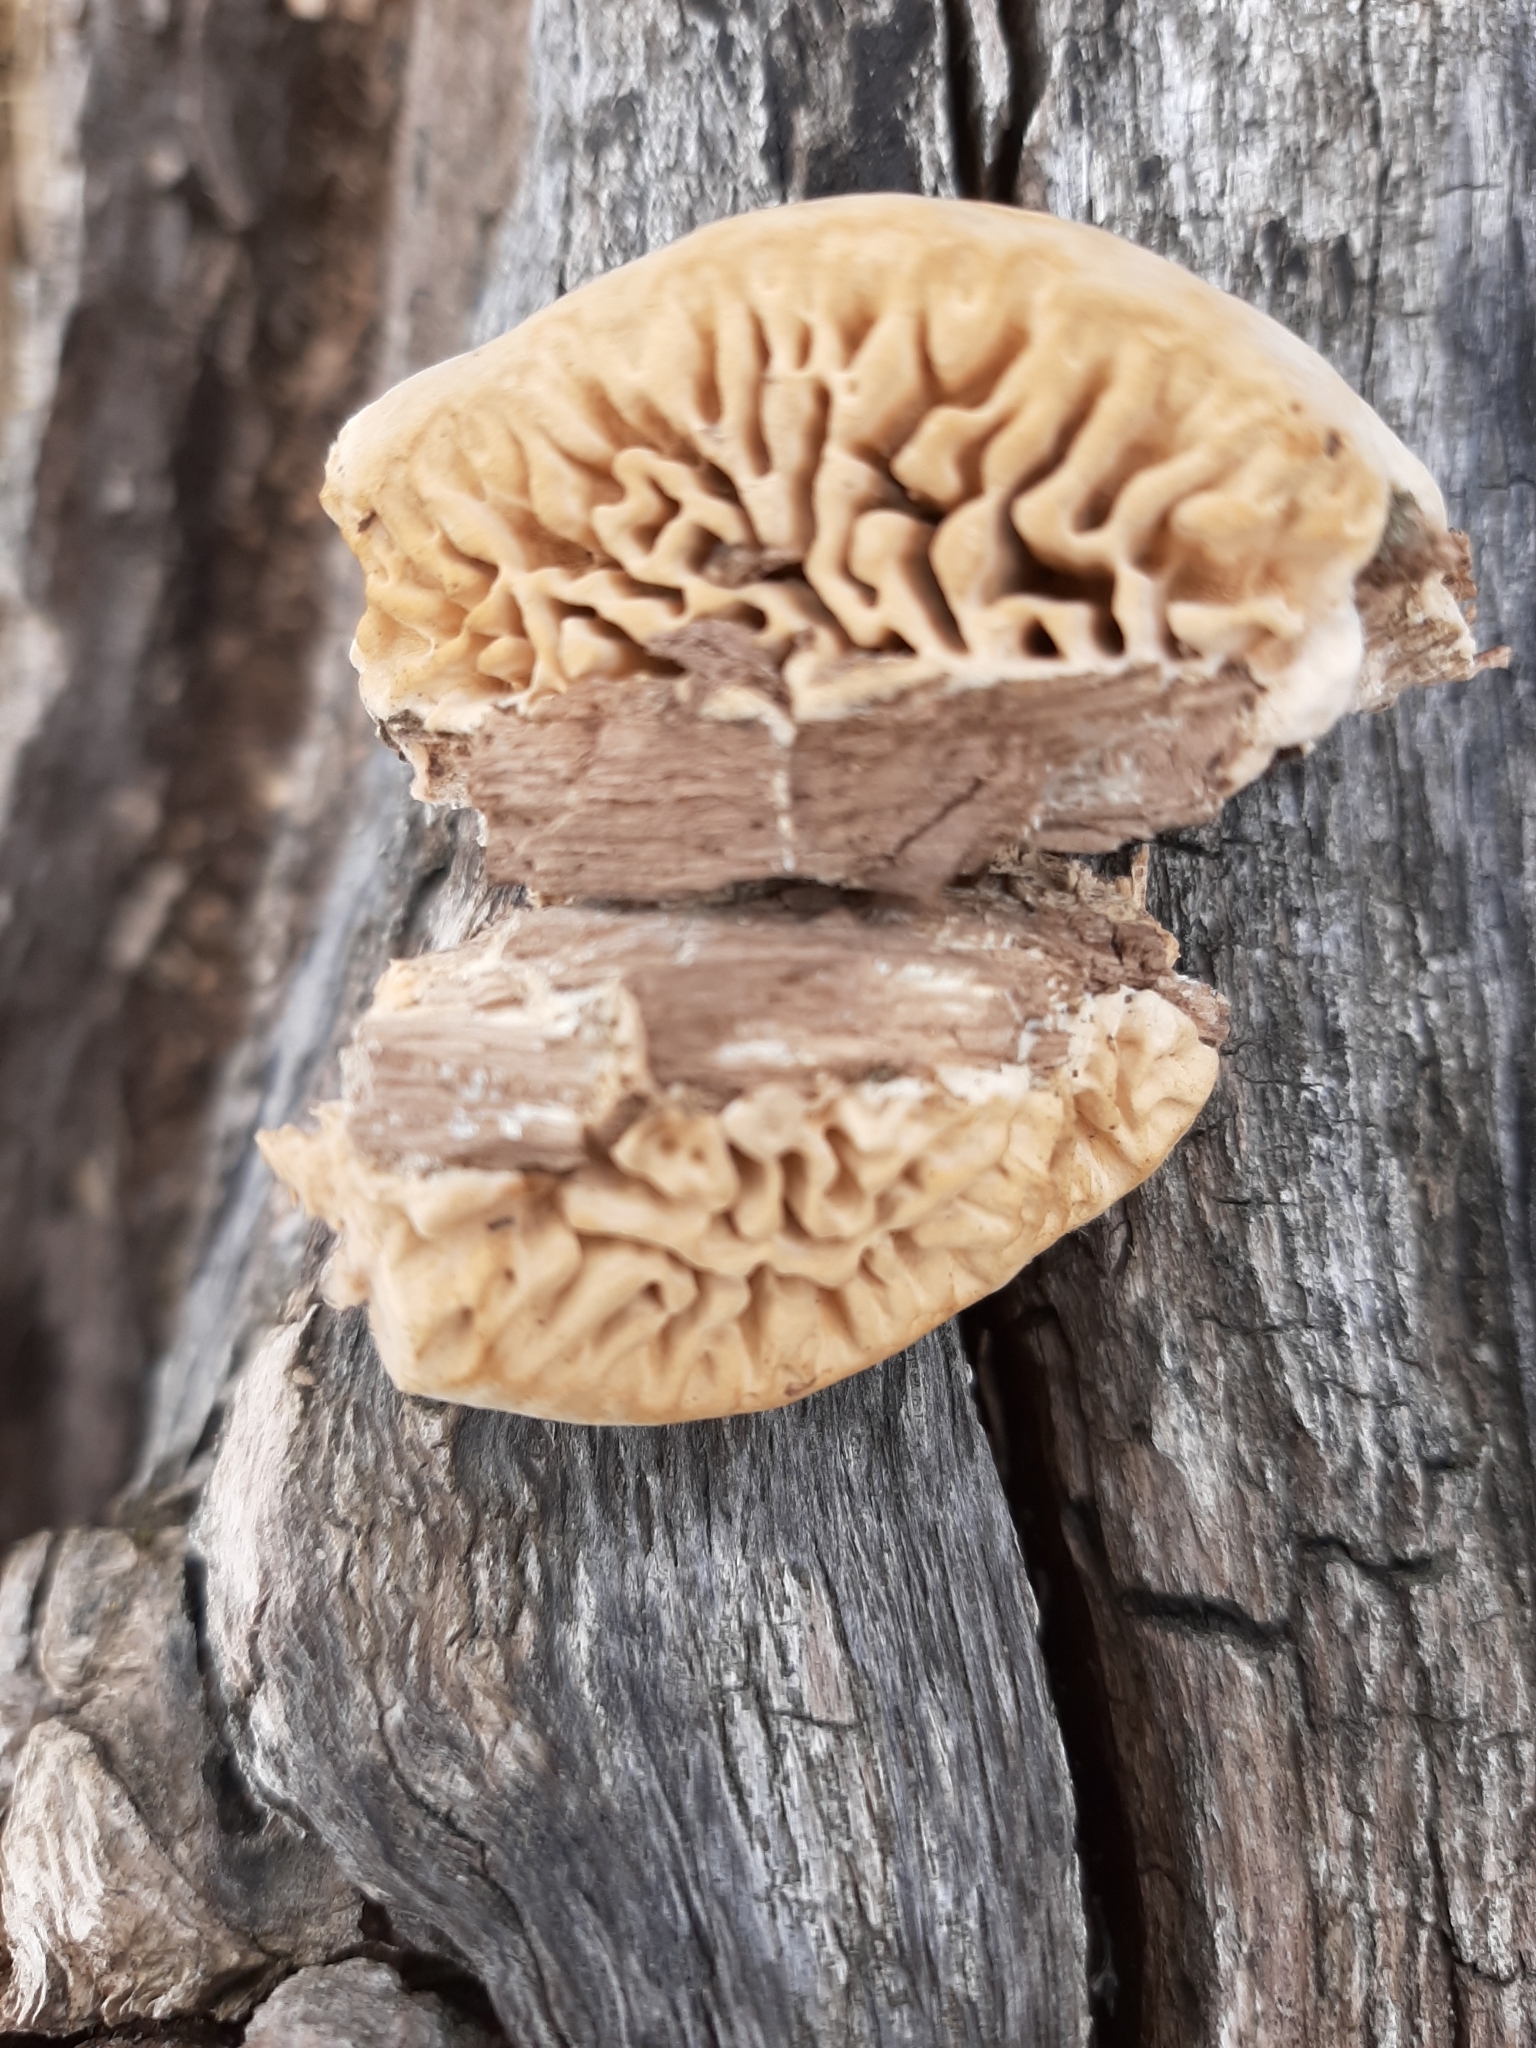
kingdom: Fungi
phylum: Basidiomycota
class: Agaricomycetes
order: Polyporales
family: Fomitopsidaceae
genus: Fomitopsis
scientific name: Fomitopsis
